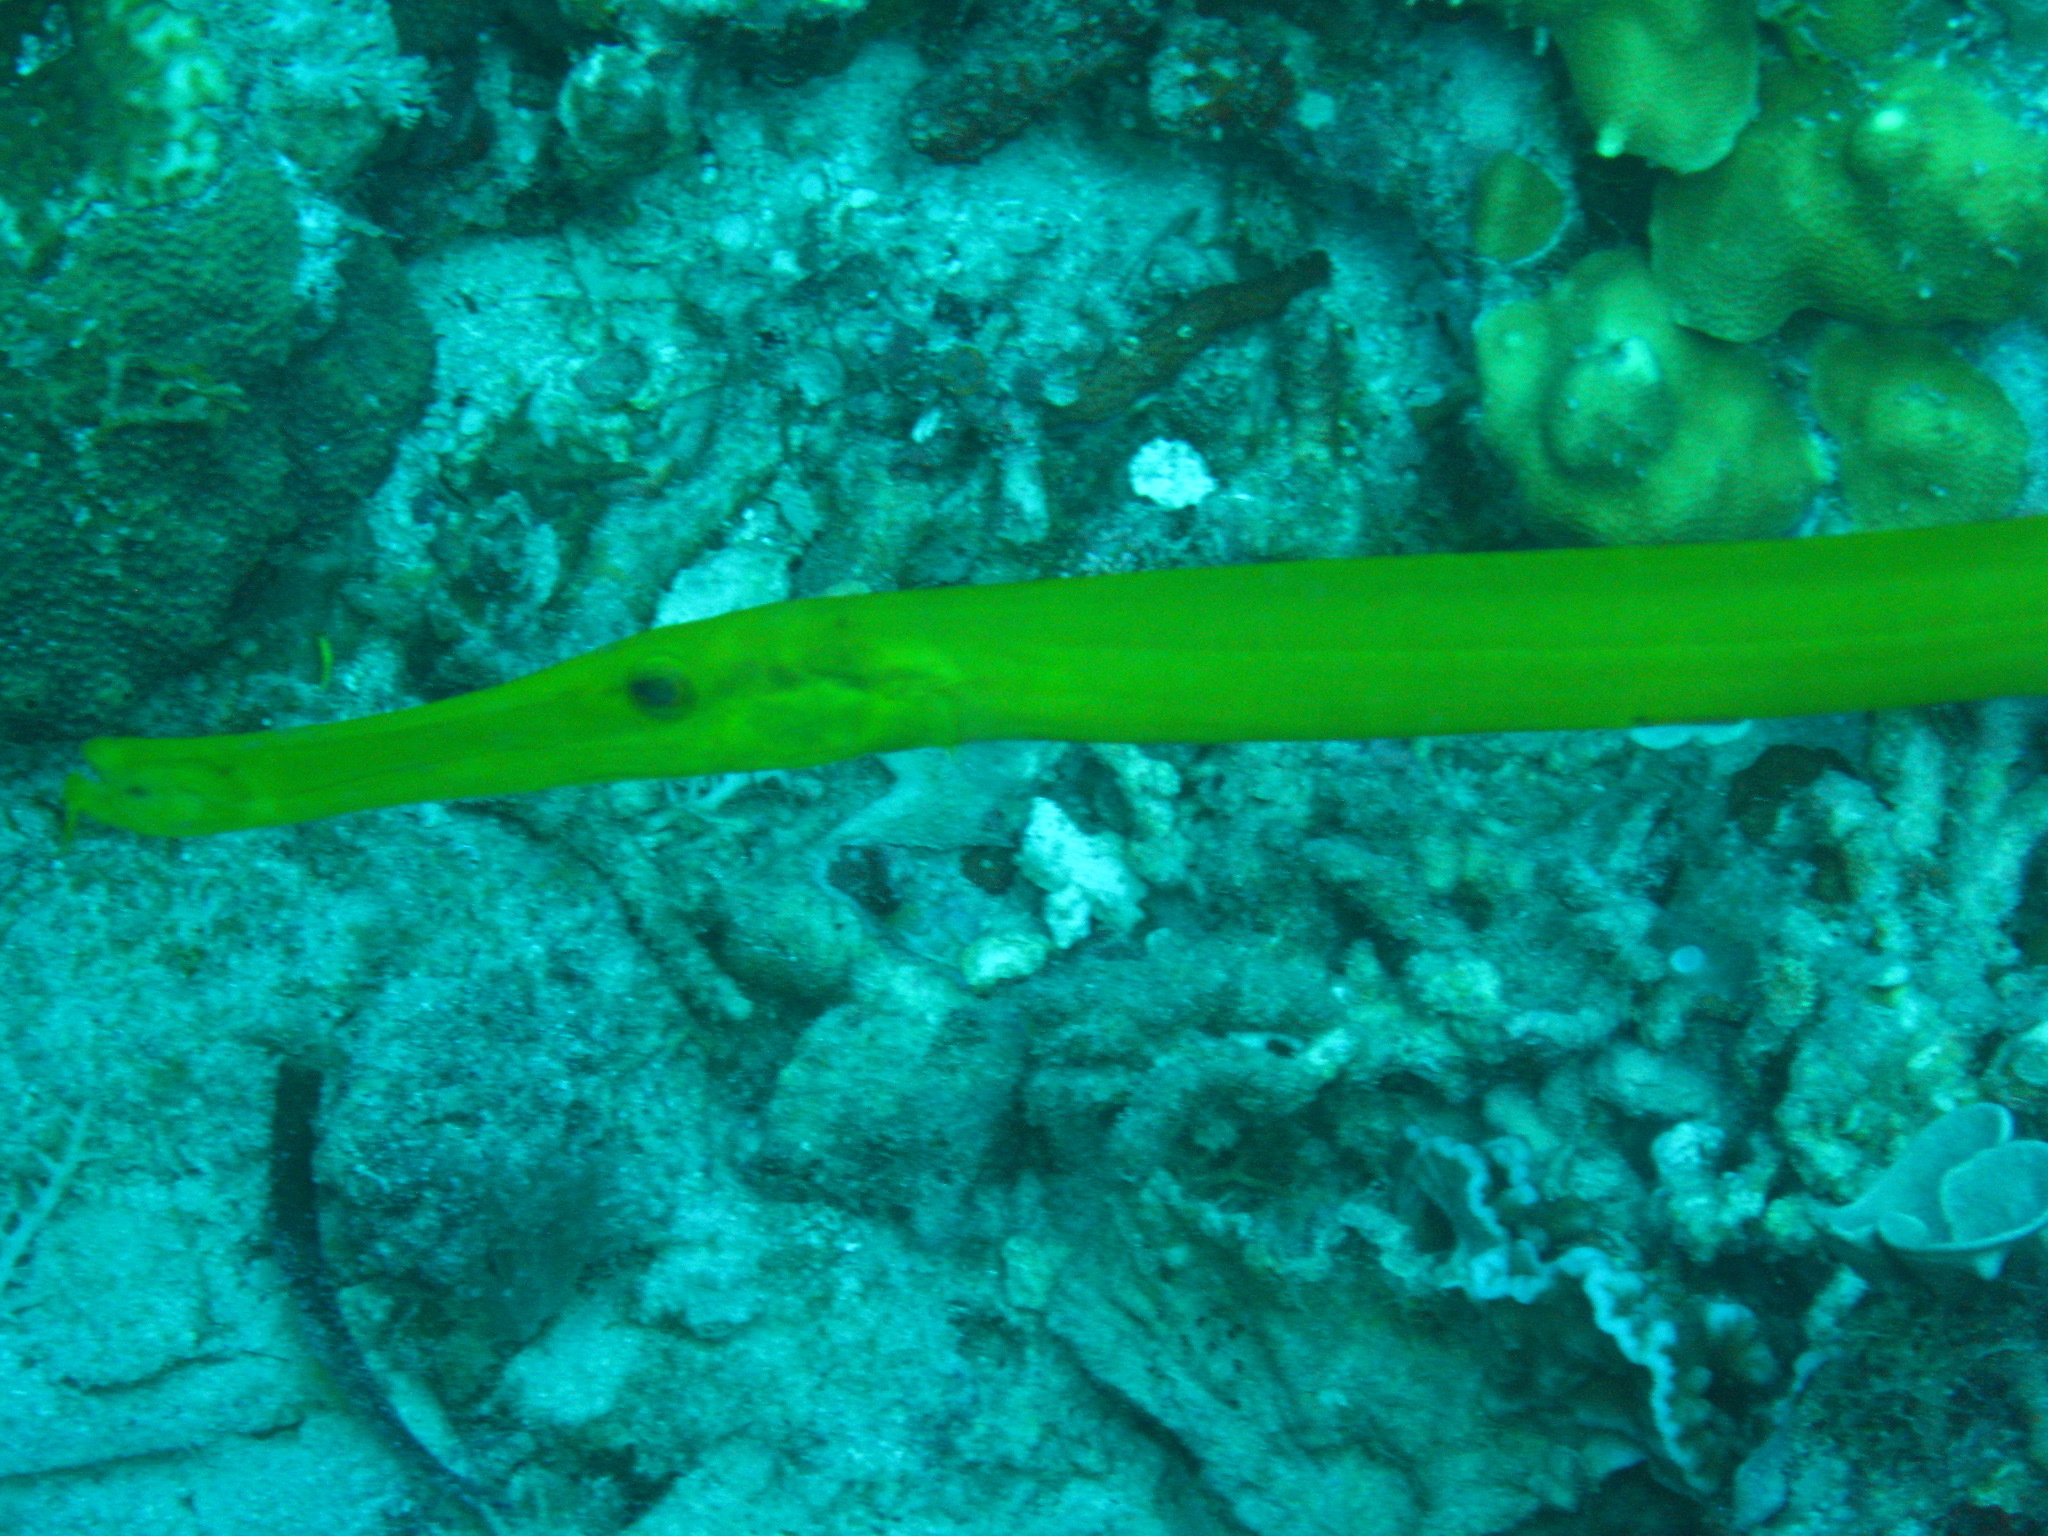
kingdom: Animalia
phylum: Chordata
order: Syngnathiformes
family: Aulostomidae
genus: Aulostomus
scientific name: Aulostomus chinensis
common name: Chinese trumpetfish
